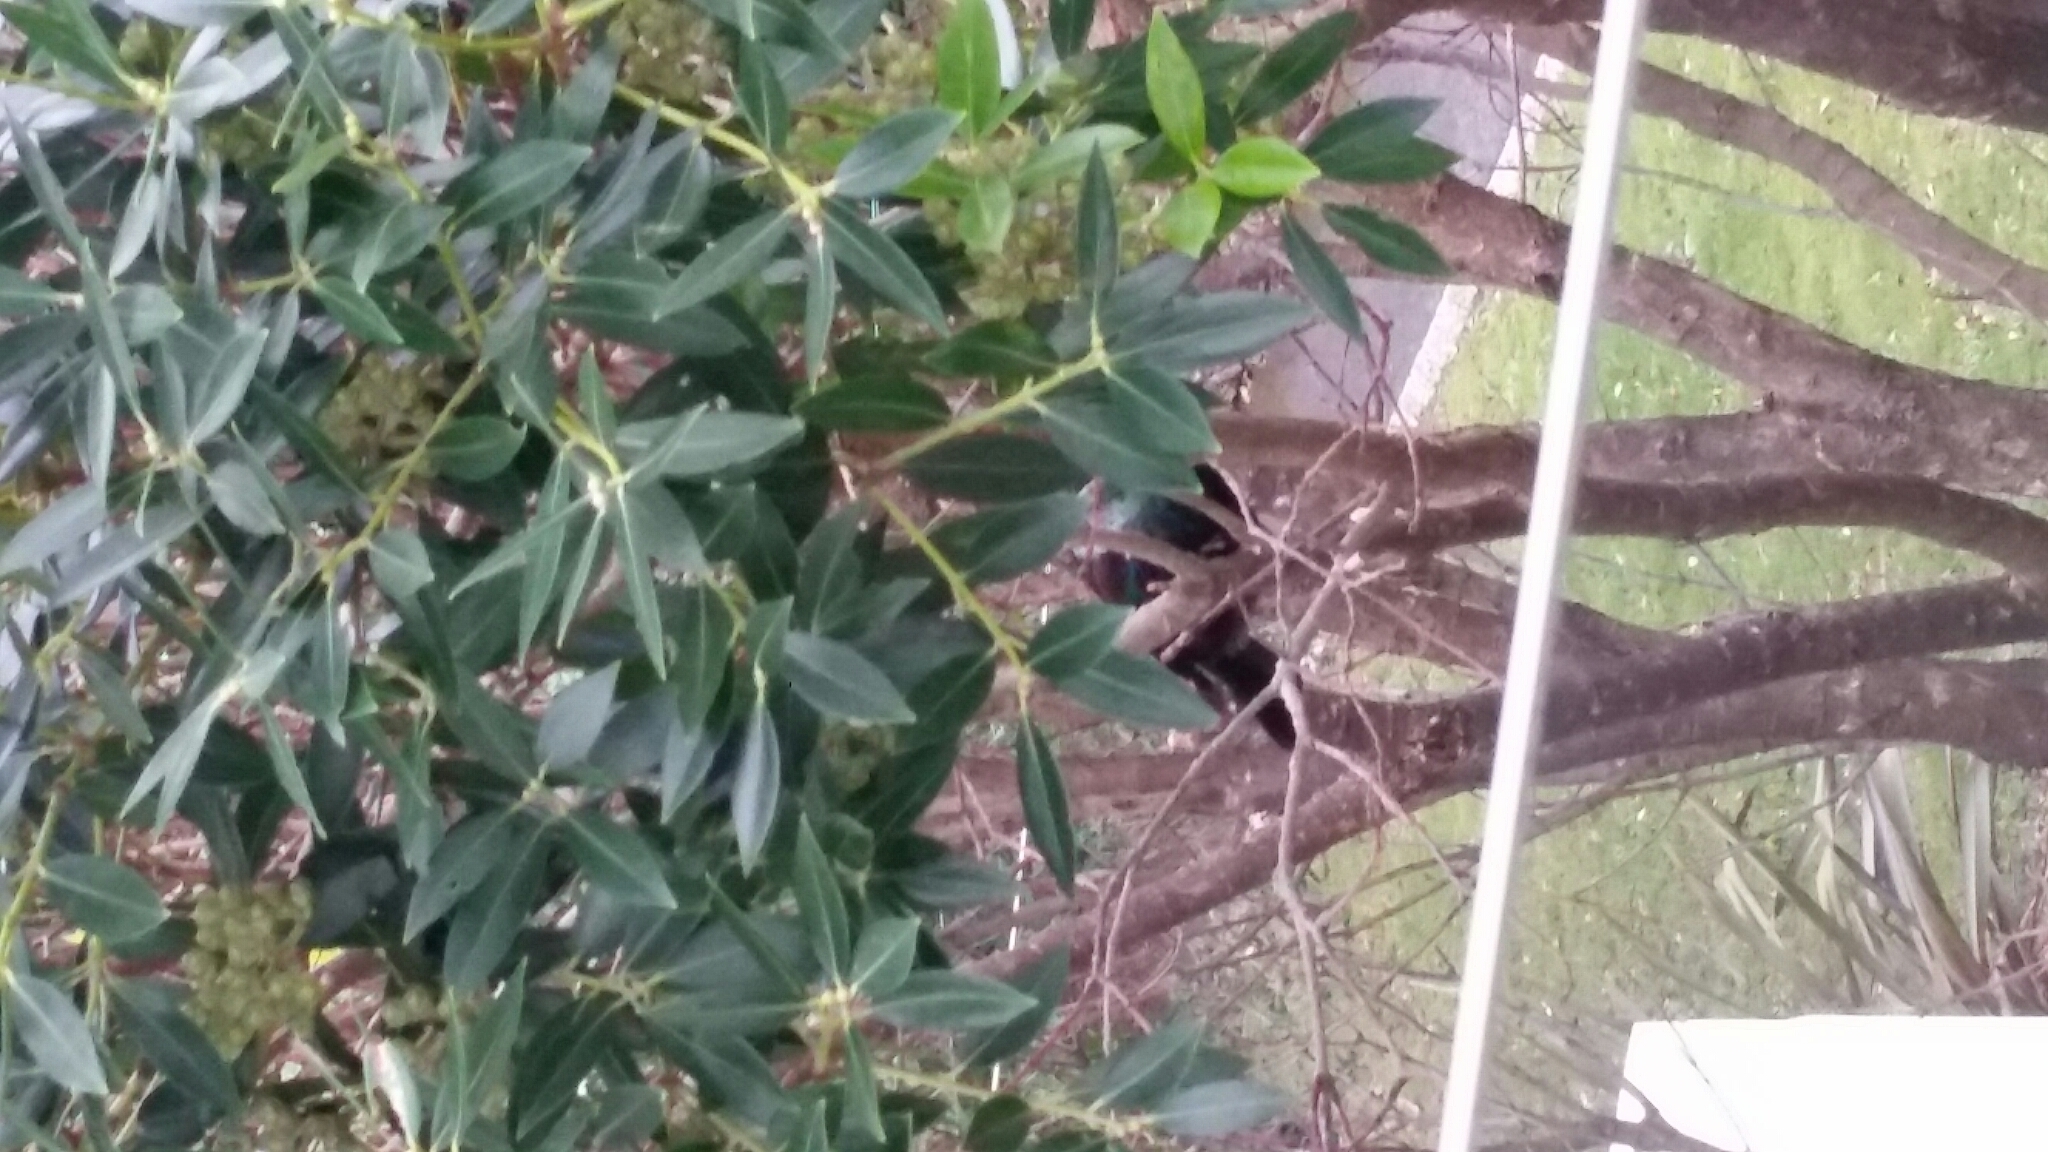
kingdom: Animalia
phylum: Chordata
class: Aves
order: Passeriformes
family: Meliphagidae
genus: Prosthemadera
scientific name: Prosthemadera novaeseelandiae
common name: Tui
